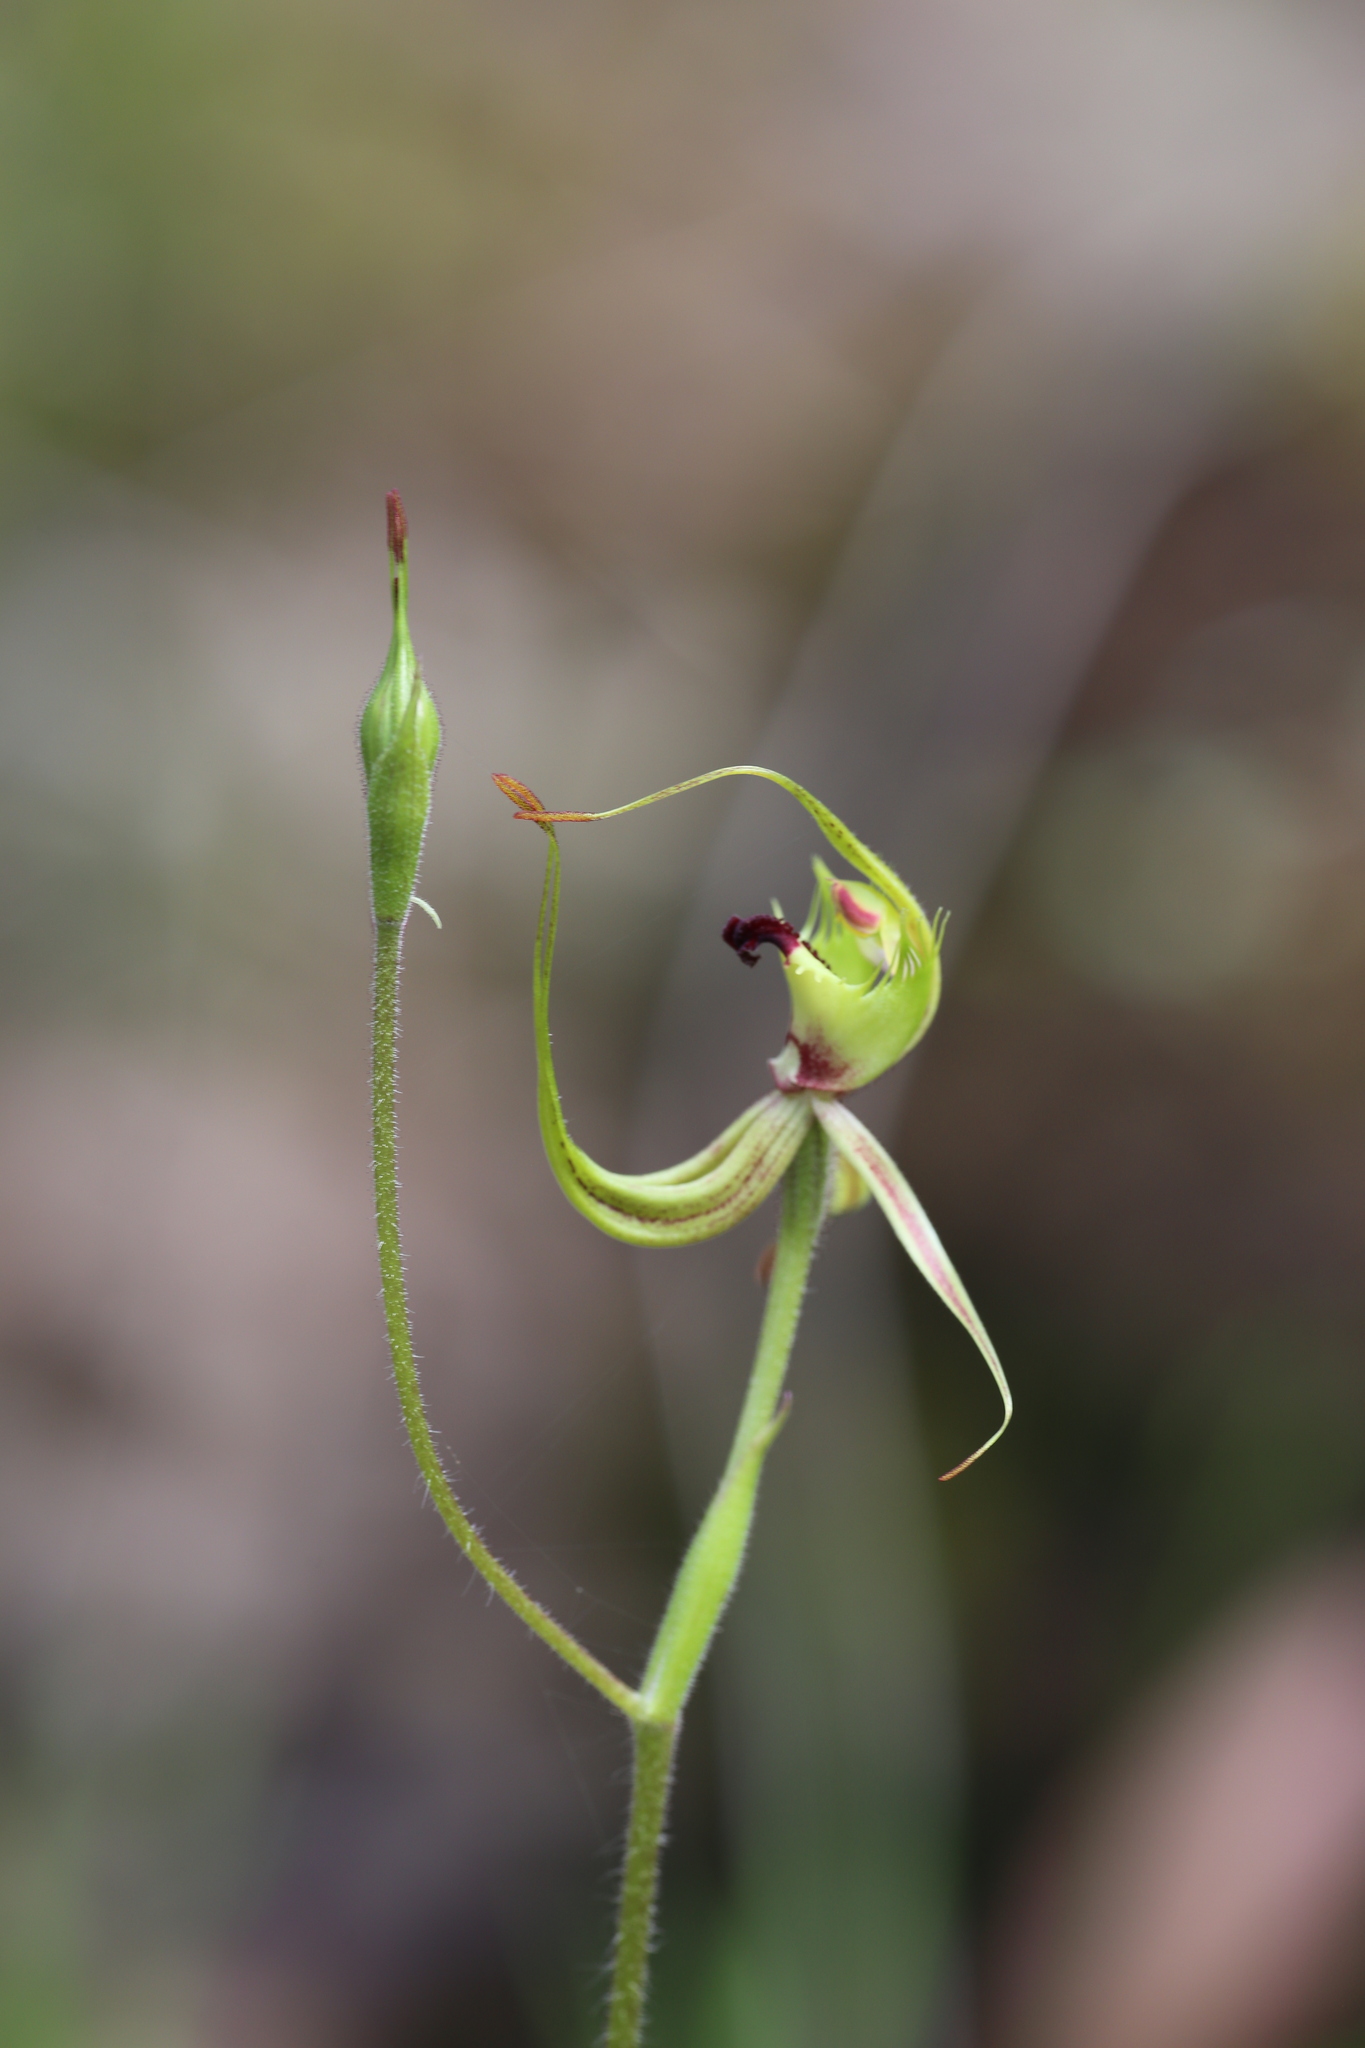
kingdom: Plantae
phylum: Tracheophyta
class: Liliopsida
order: Asparagales
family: Orchidaceae
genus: Caladenia
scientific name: Caladenia attingens
